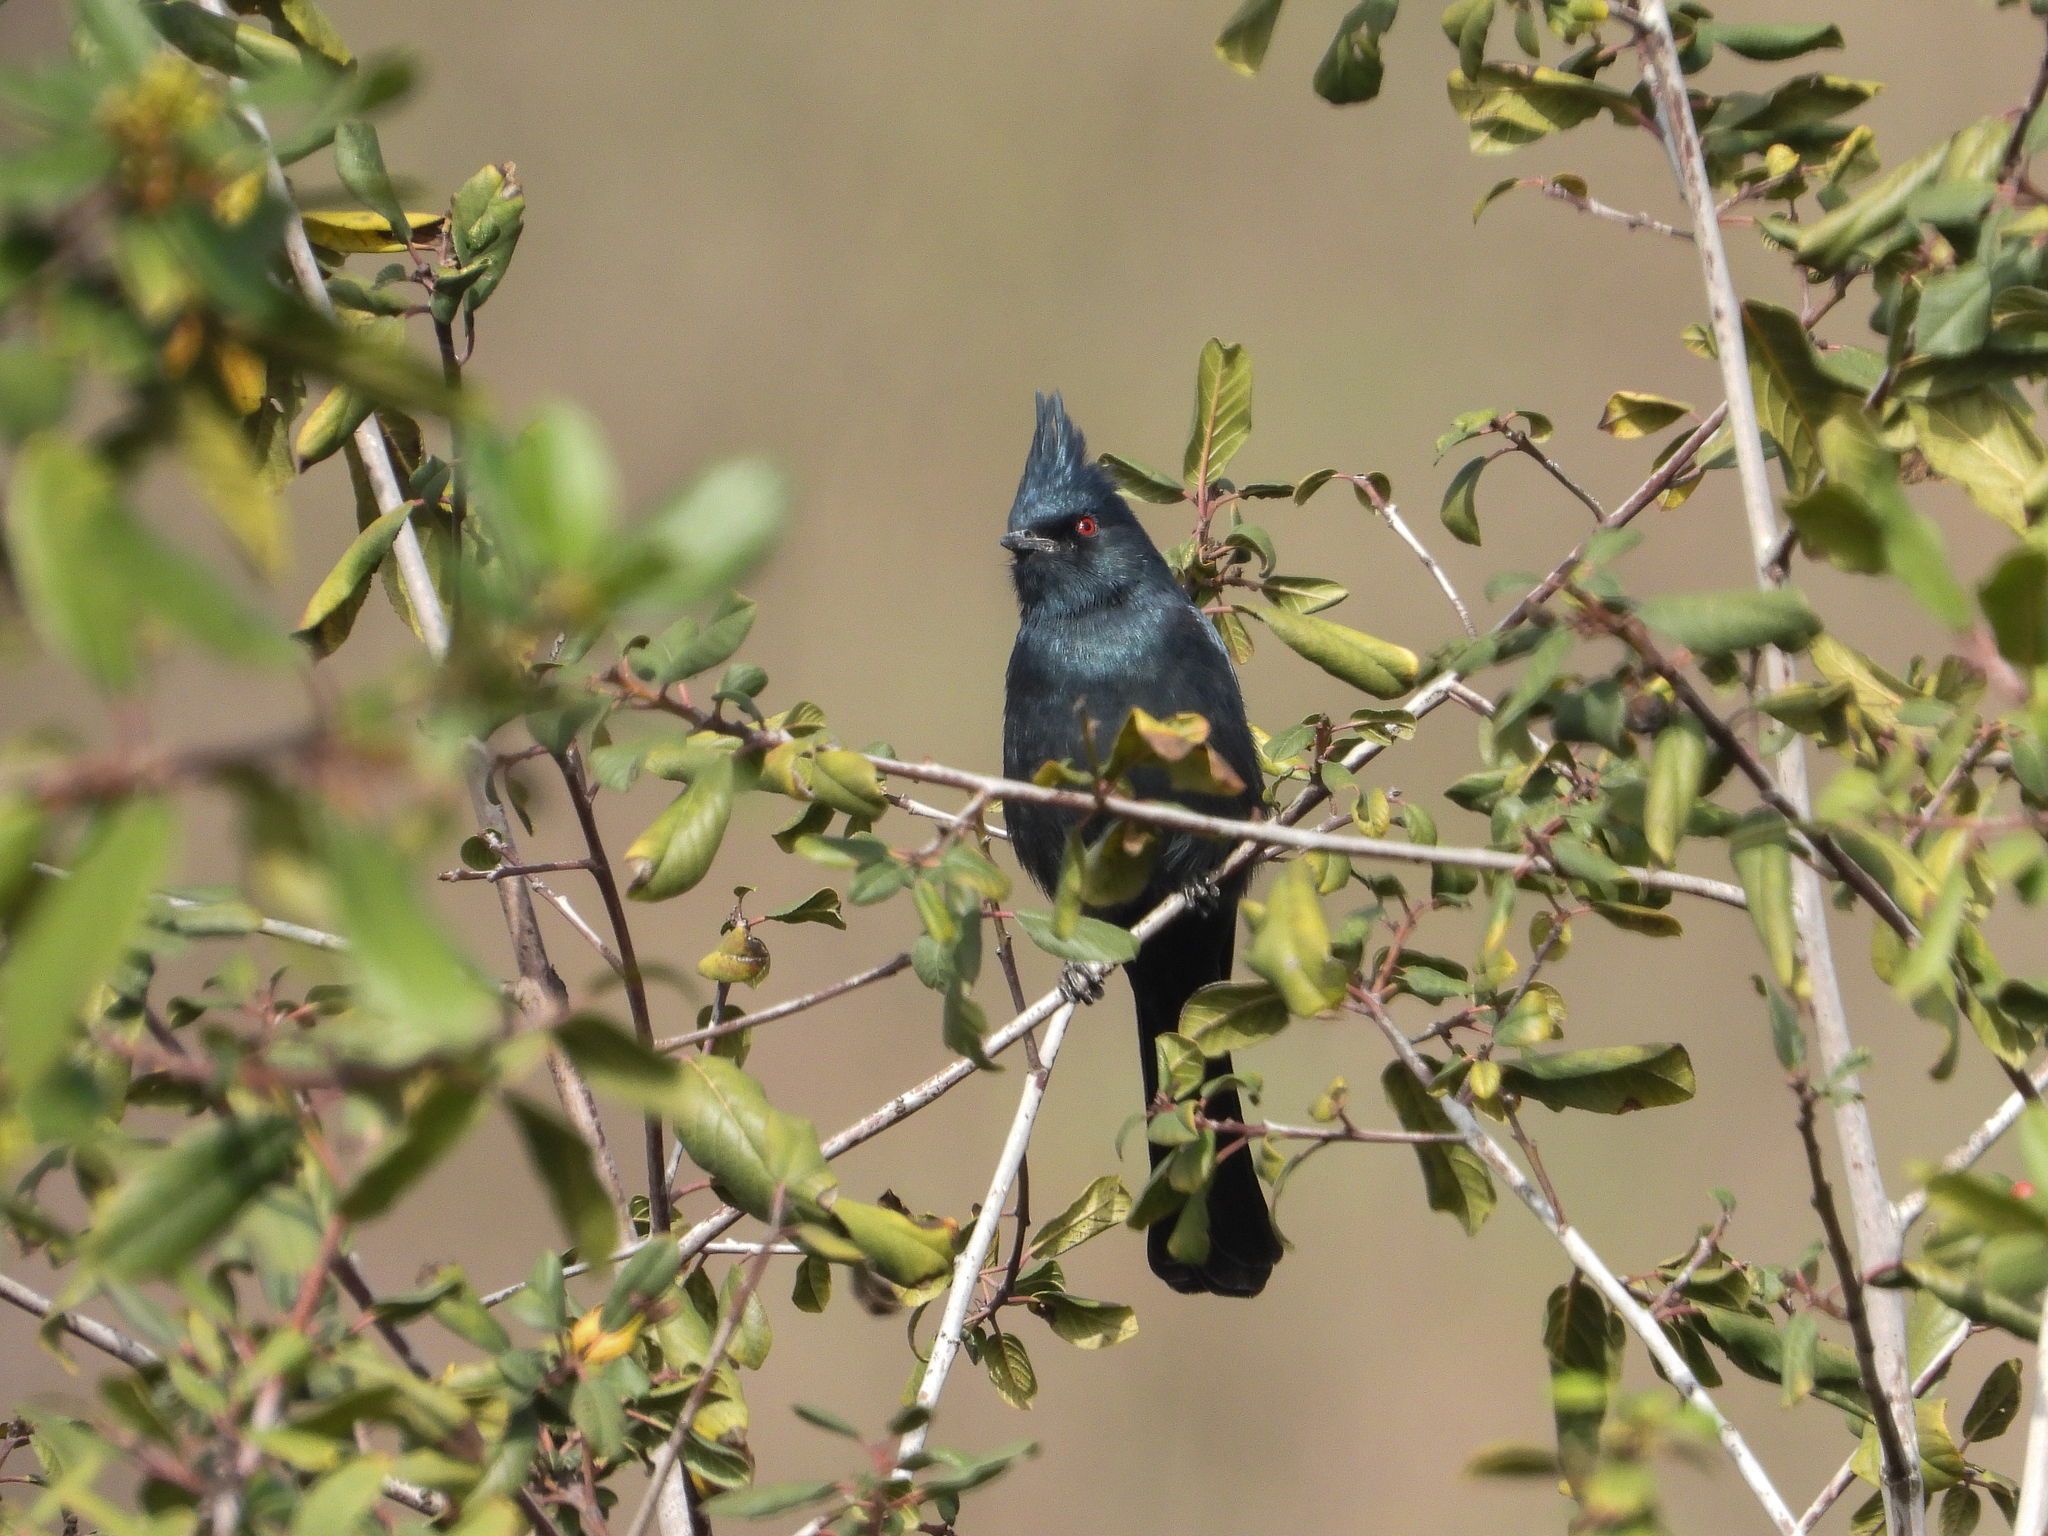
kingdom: Animalia
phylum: Chordata
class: Aves
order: Passeriformes
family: Ptilogonatidae
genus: Phainopepla
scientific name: Phainopepla nitens
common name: Phainopepla
